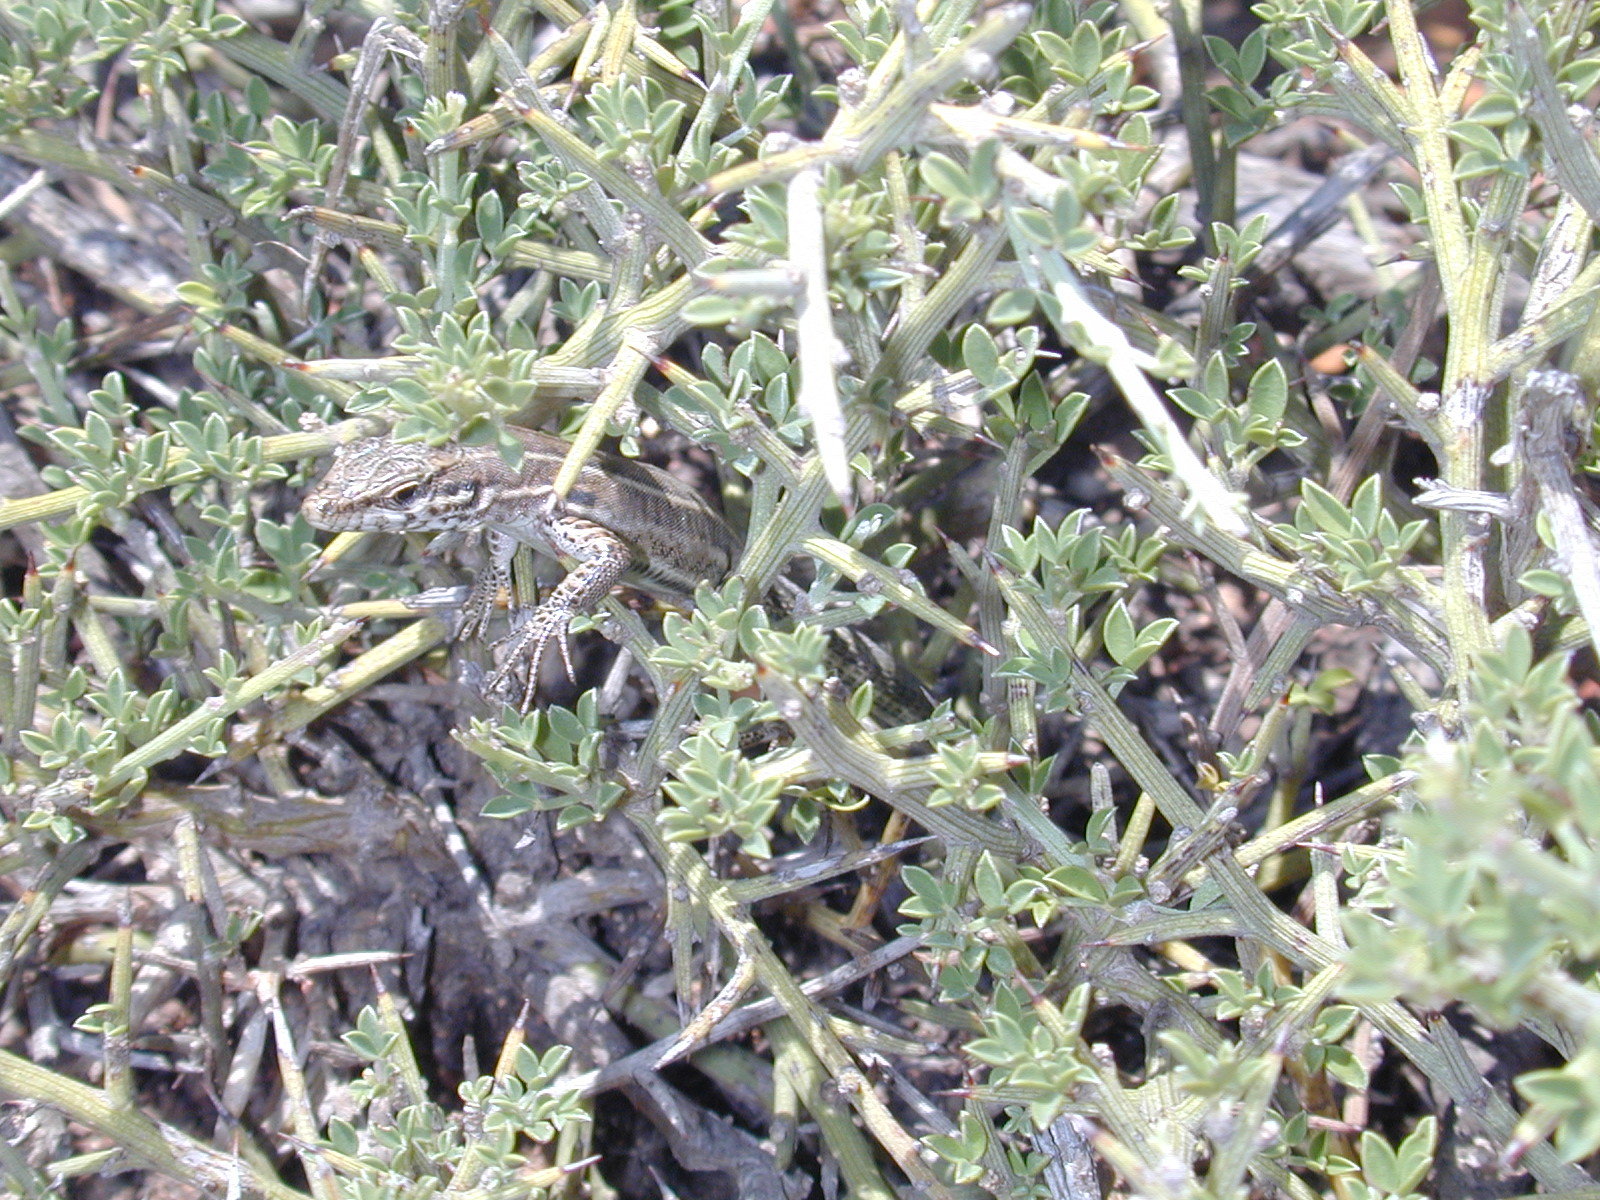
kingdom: Animalia
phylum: Chordata
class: Squamata
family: Lacertidae
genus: Podarcis
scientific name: Podarcis tiliguerta
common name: Tyrrhenian wall lizard
